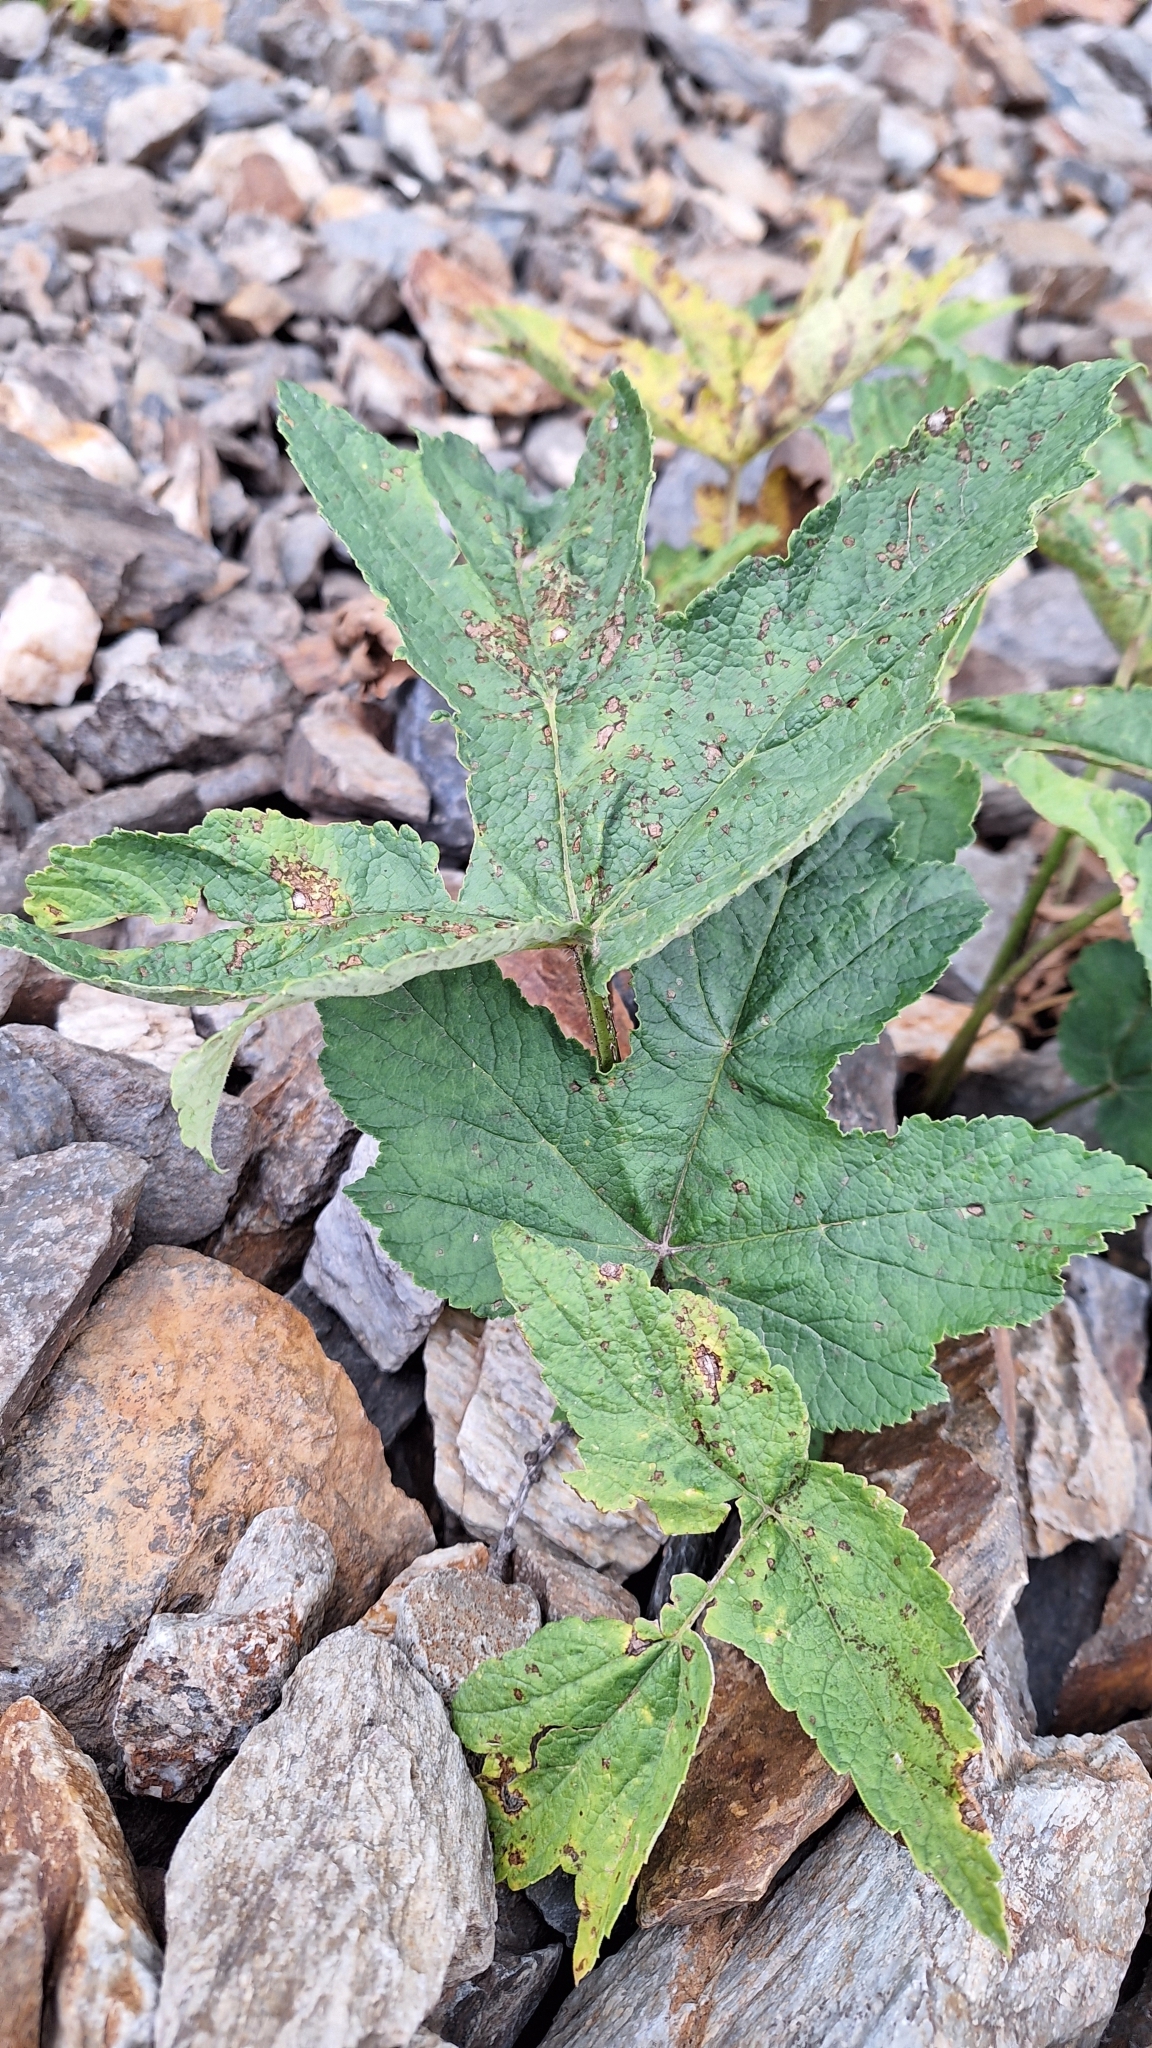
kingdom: Plantae
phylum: Tracheophyta
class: Magnoliopsida
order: Apiales
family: Apiaceae
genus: Heracleum
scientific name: Heracleum dissectum
